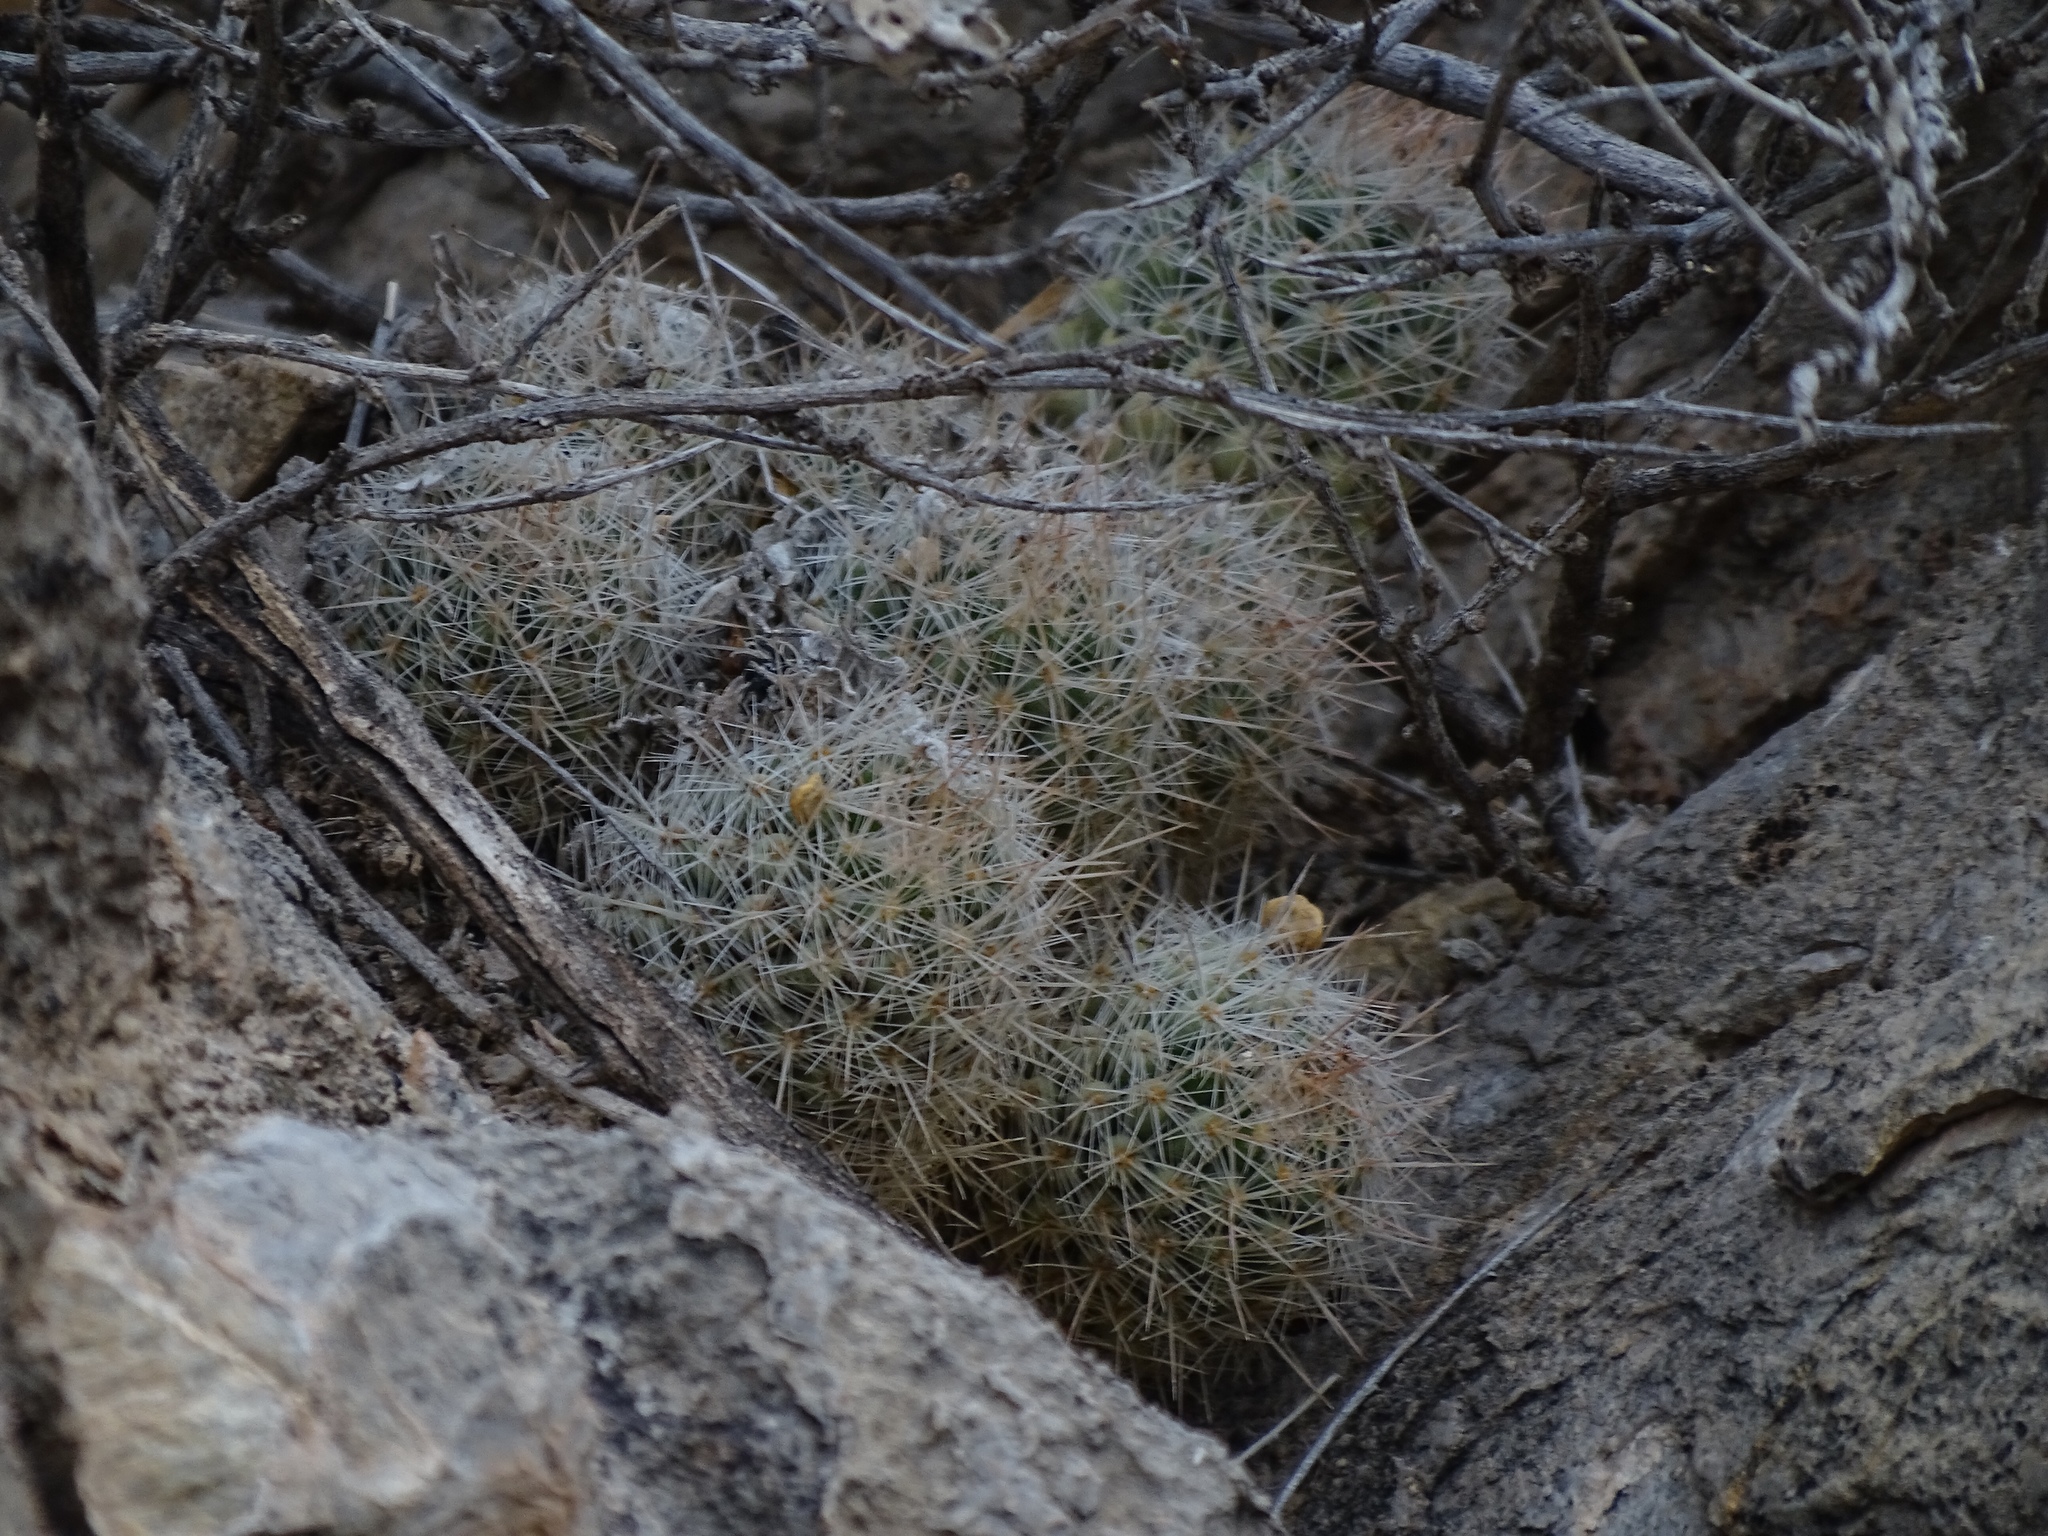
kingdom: Plantae
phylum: Tracheophyta
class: Magnoliopsida
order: Caryophyllales
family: Cactaceae
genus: Pelecyphora
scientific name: Pelecyphora tuberculosa
